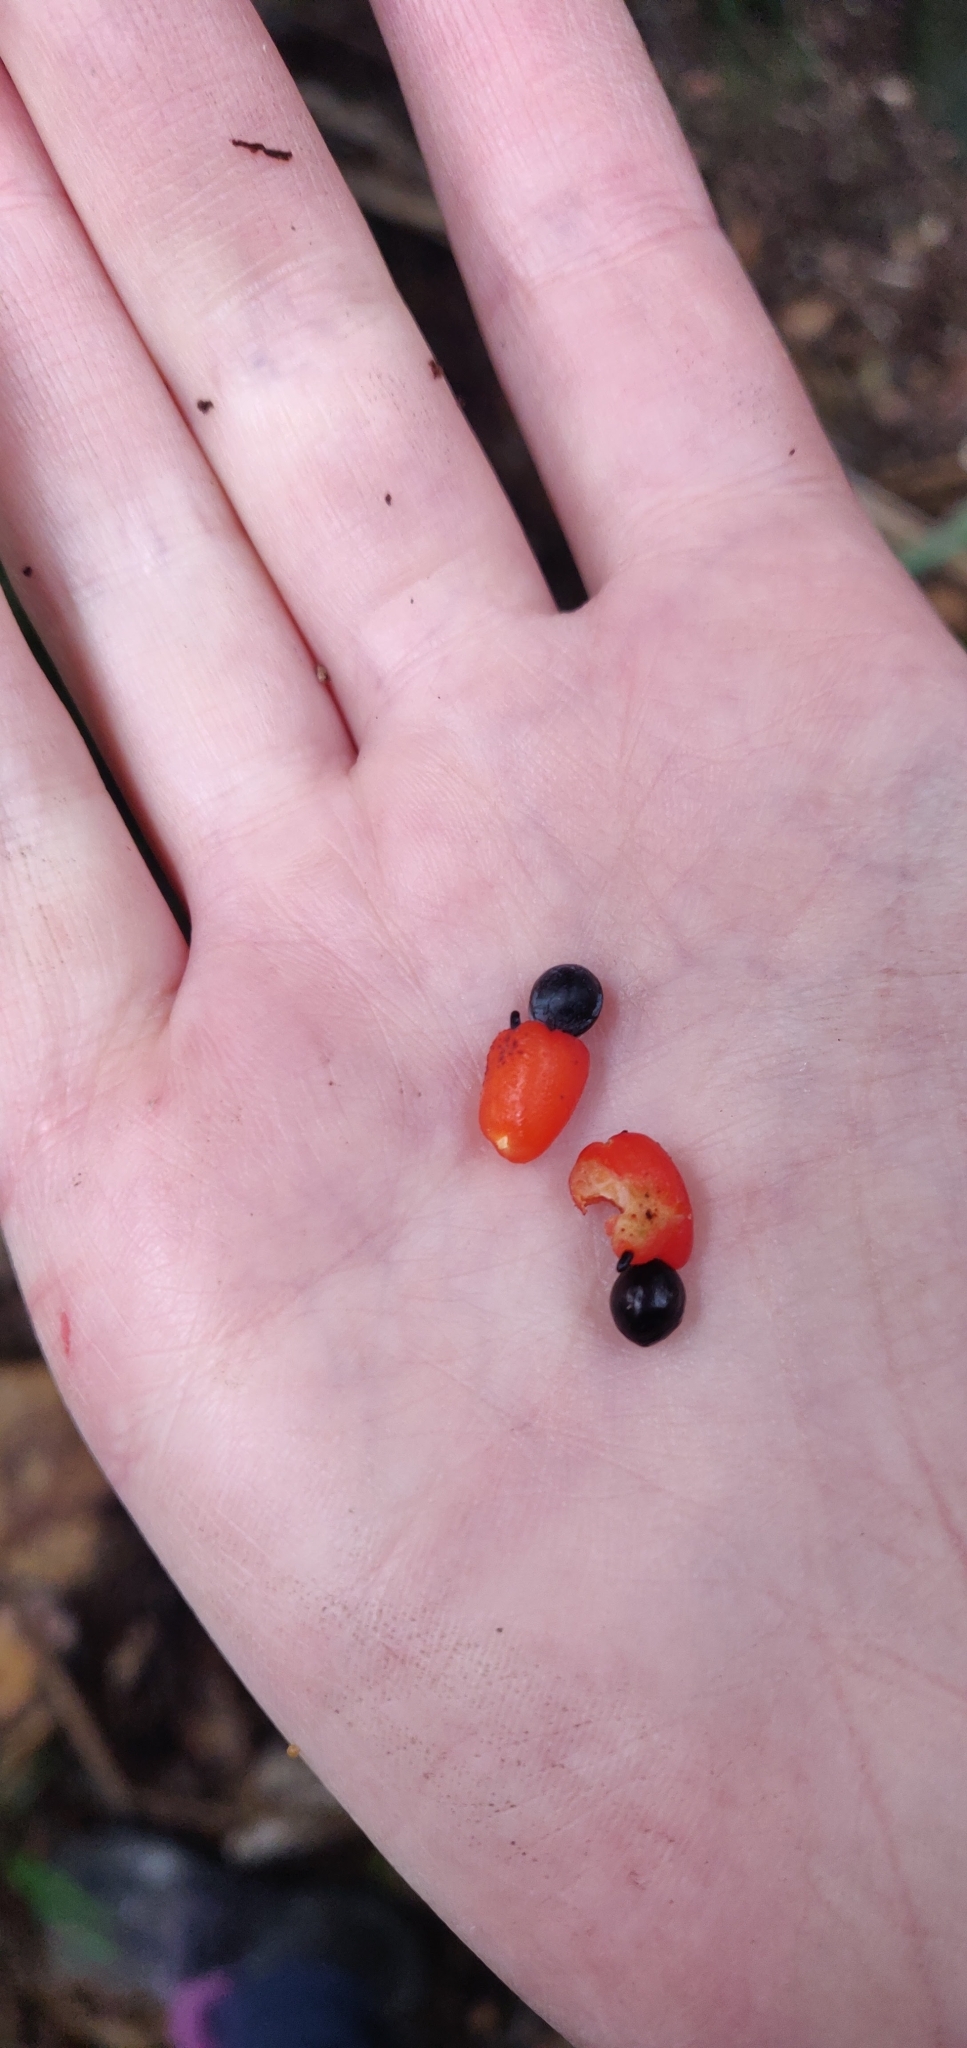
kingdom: Plantae
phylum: Tracheophyta
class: Pinopsida
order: Pinales
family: Podocarpaceae
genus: Dacrycarpus
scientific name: Dacrycarpus dacrydioides
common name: White pine
